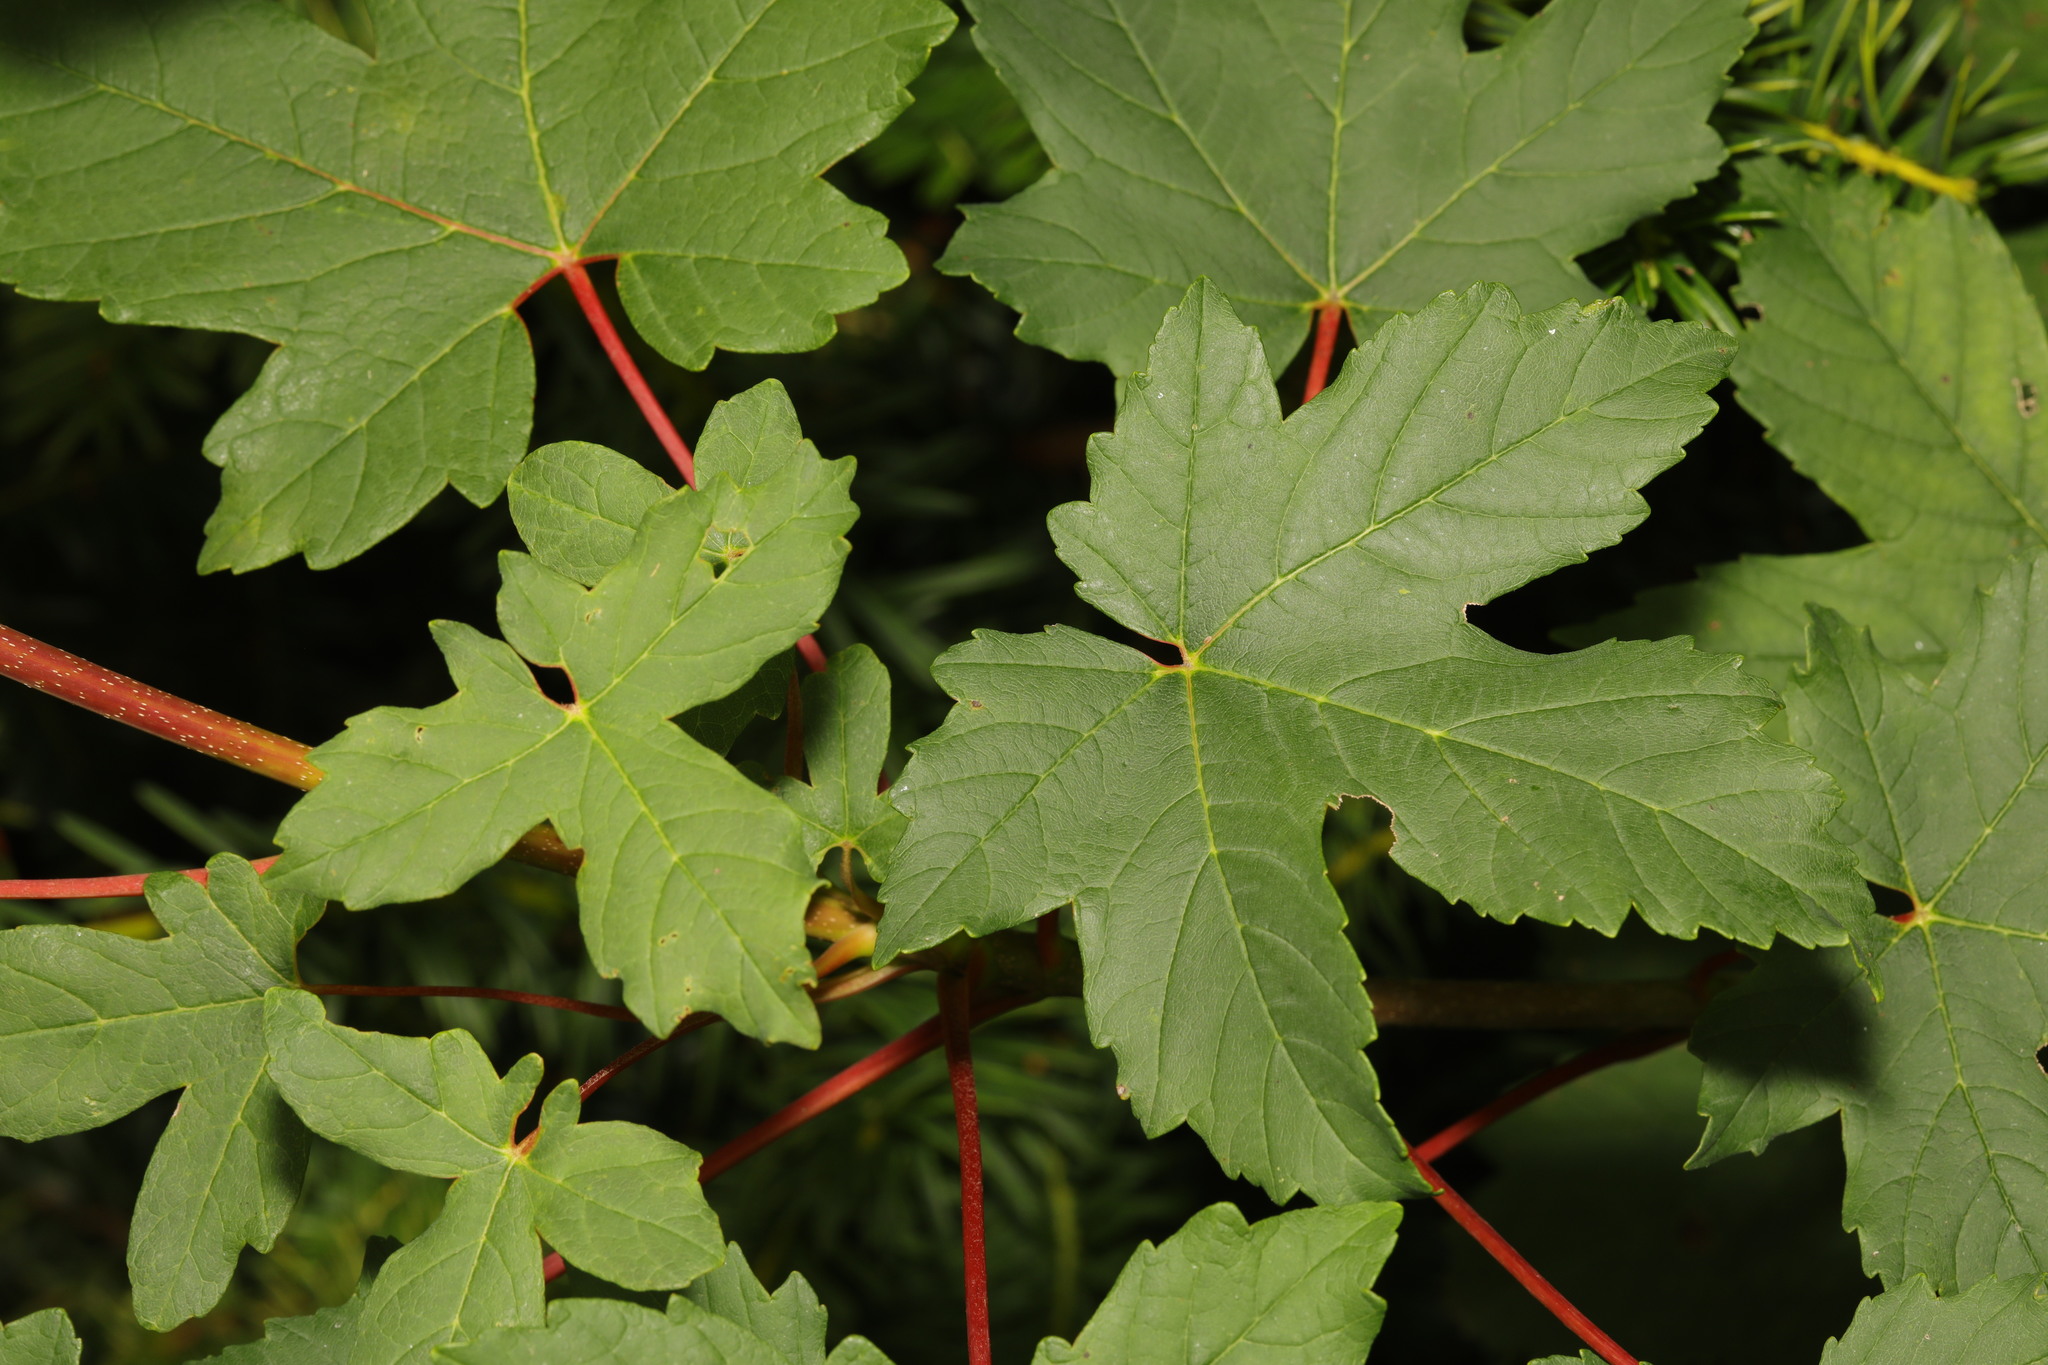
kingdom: Plantae
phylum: Tracheophyta
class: Magnoliopsida
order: Sapindales
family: Sapindaceae
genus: Acer
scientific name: Acer pseudoplatanus
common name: Sycamore
